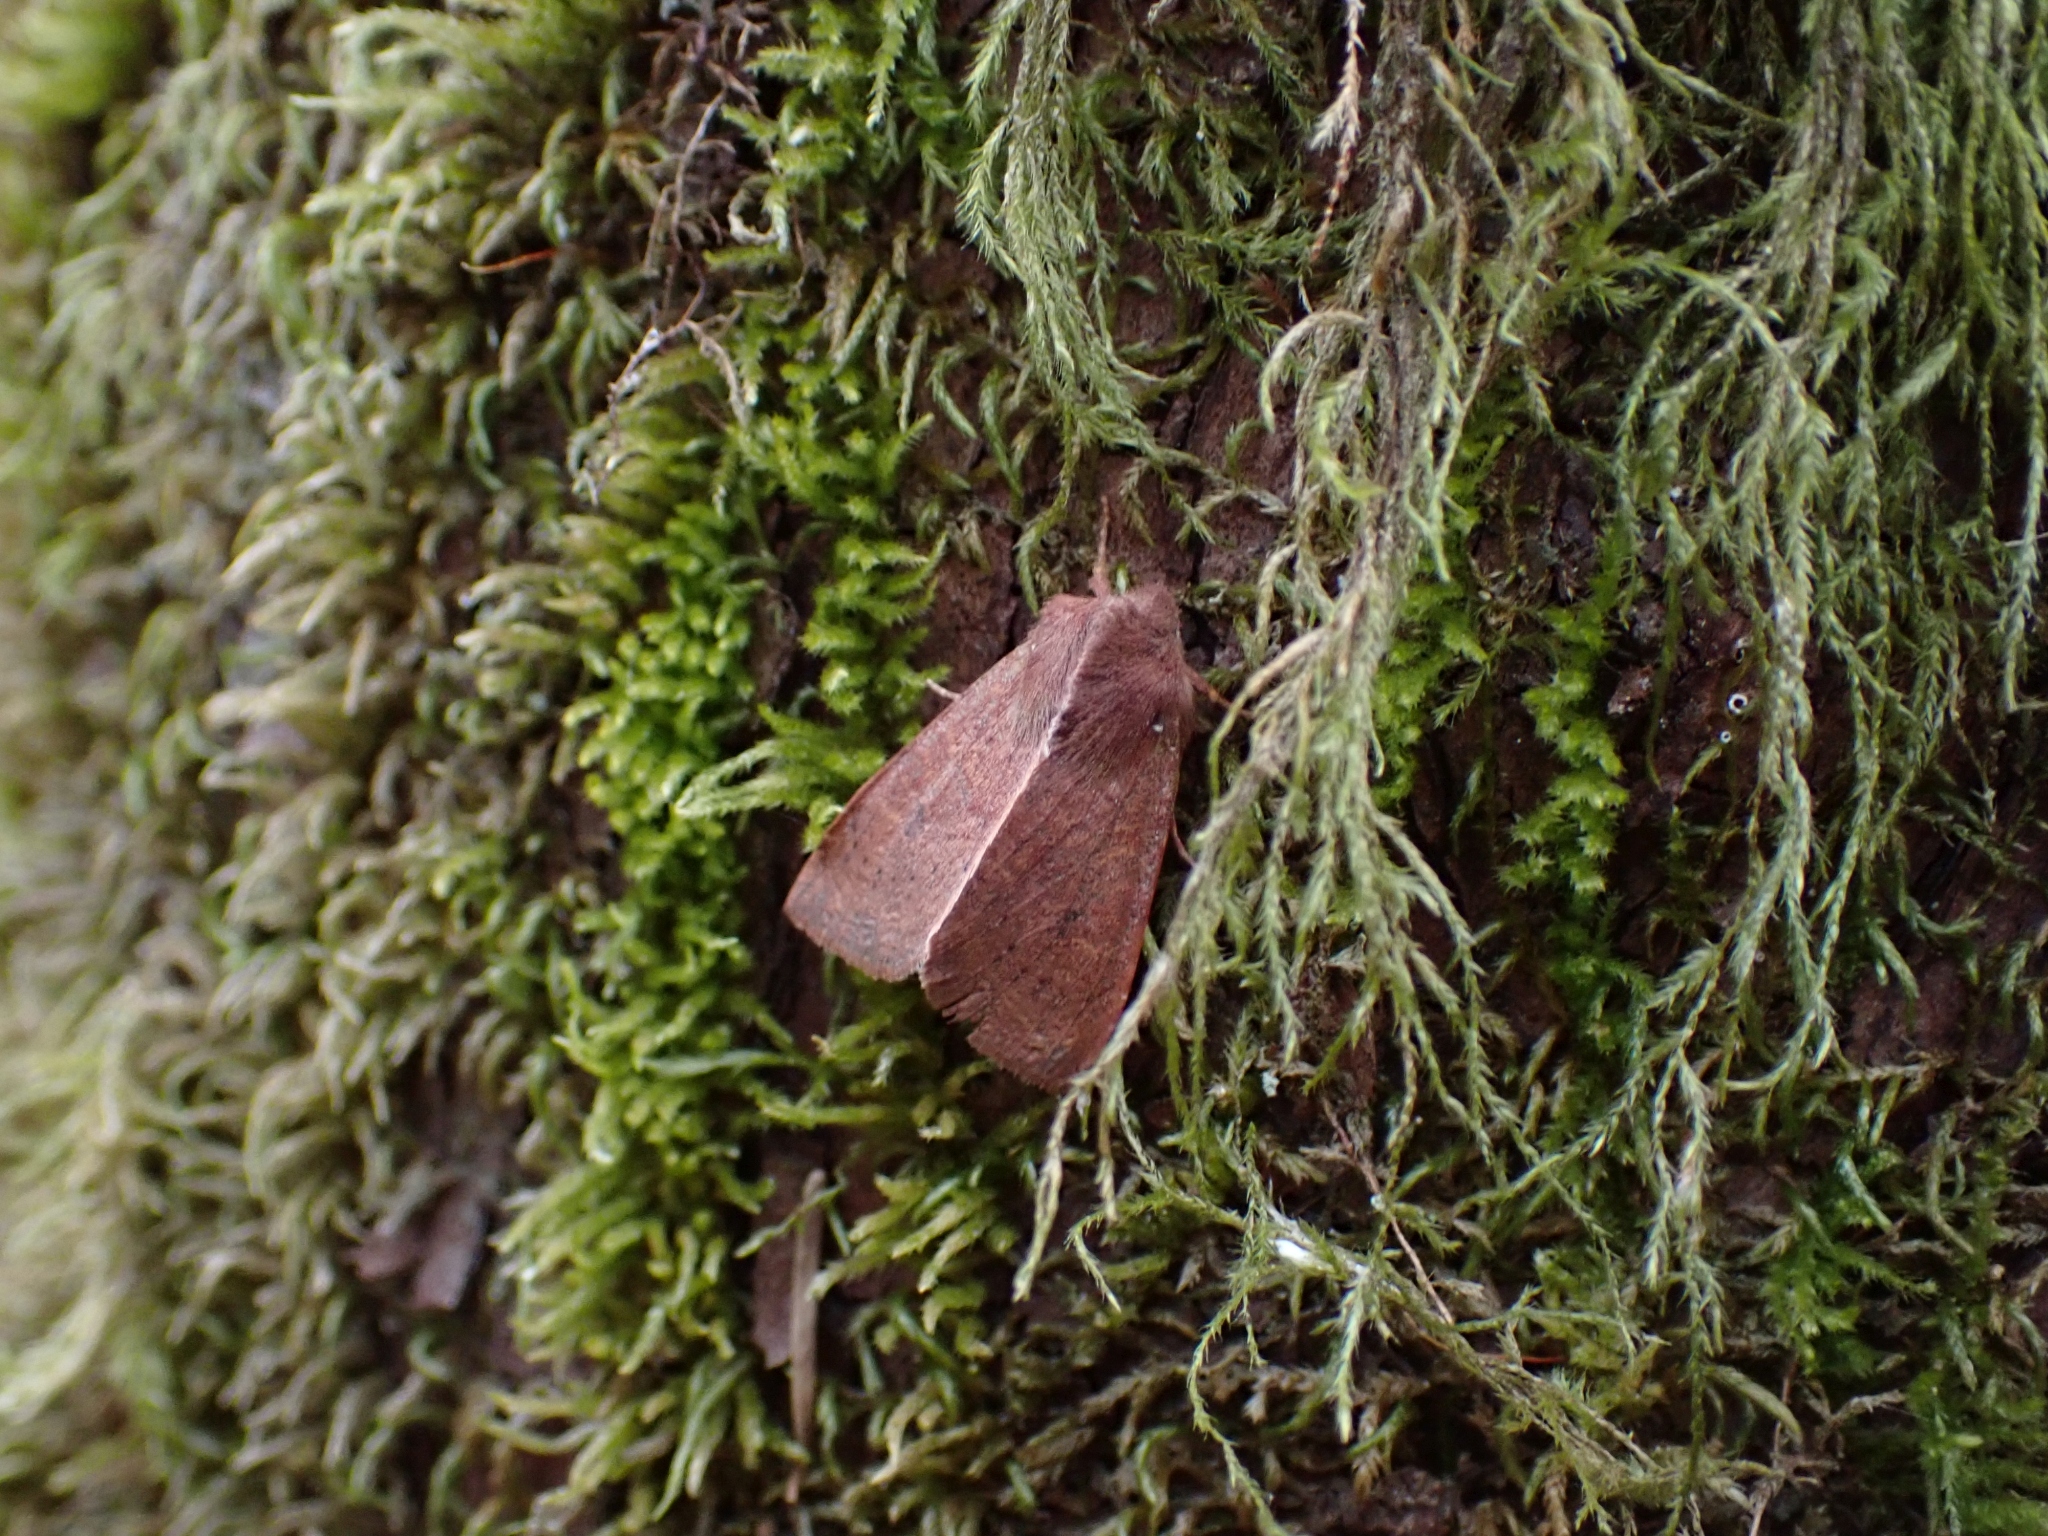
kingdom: Animalia
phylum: Arthropoda
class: Insecta
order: Lepidoptera
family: Noctuidae
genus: Orthosia
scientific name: Orthosia transparens
